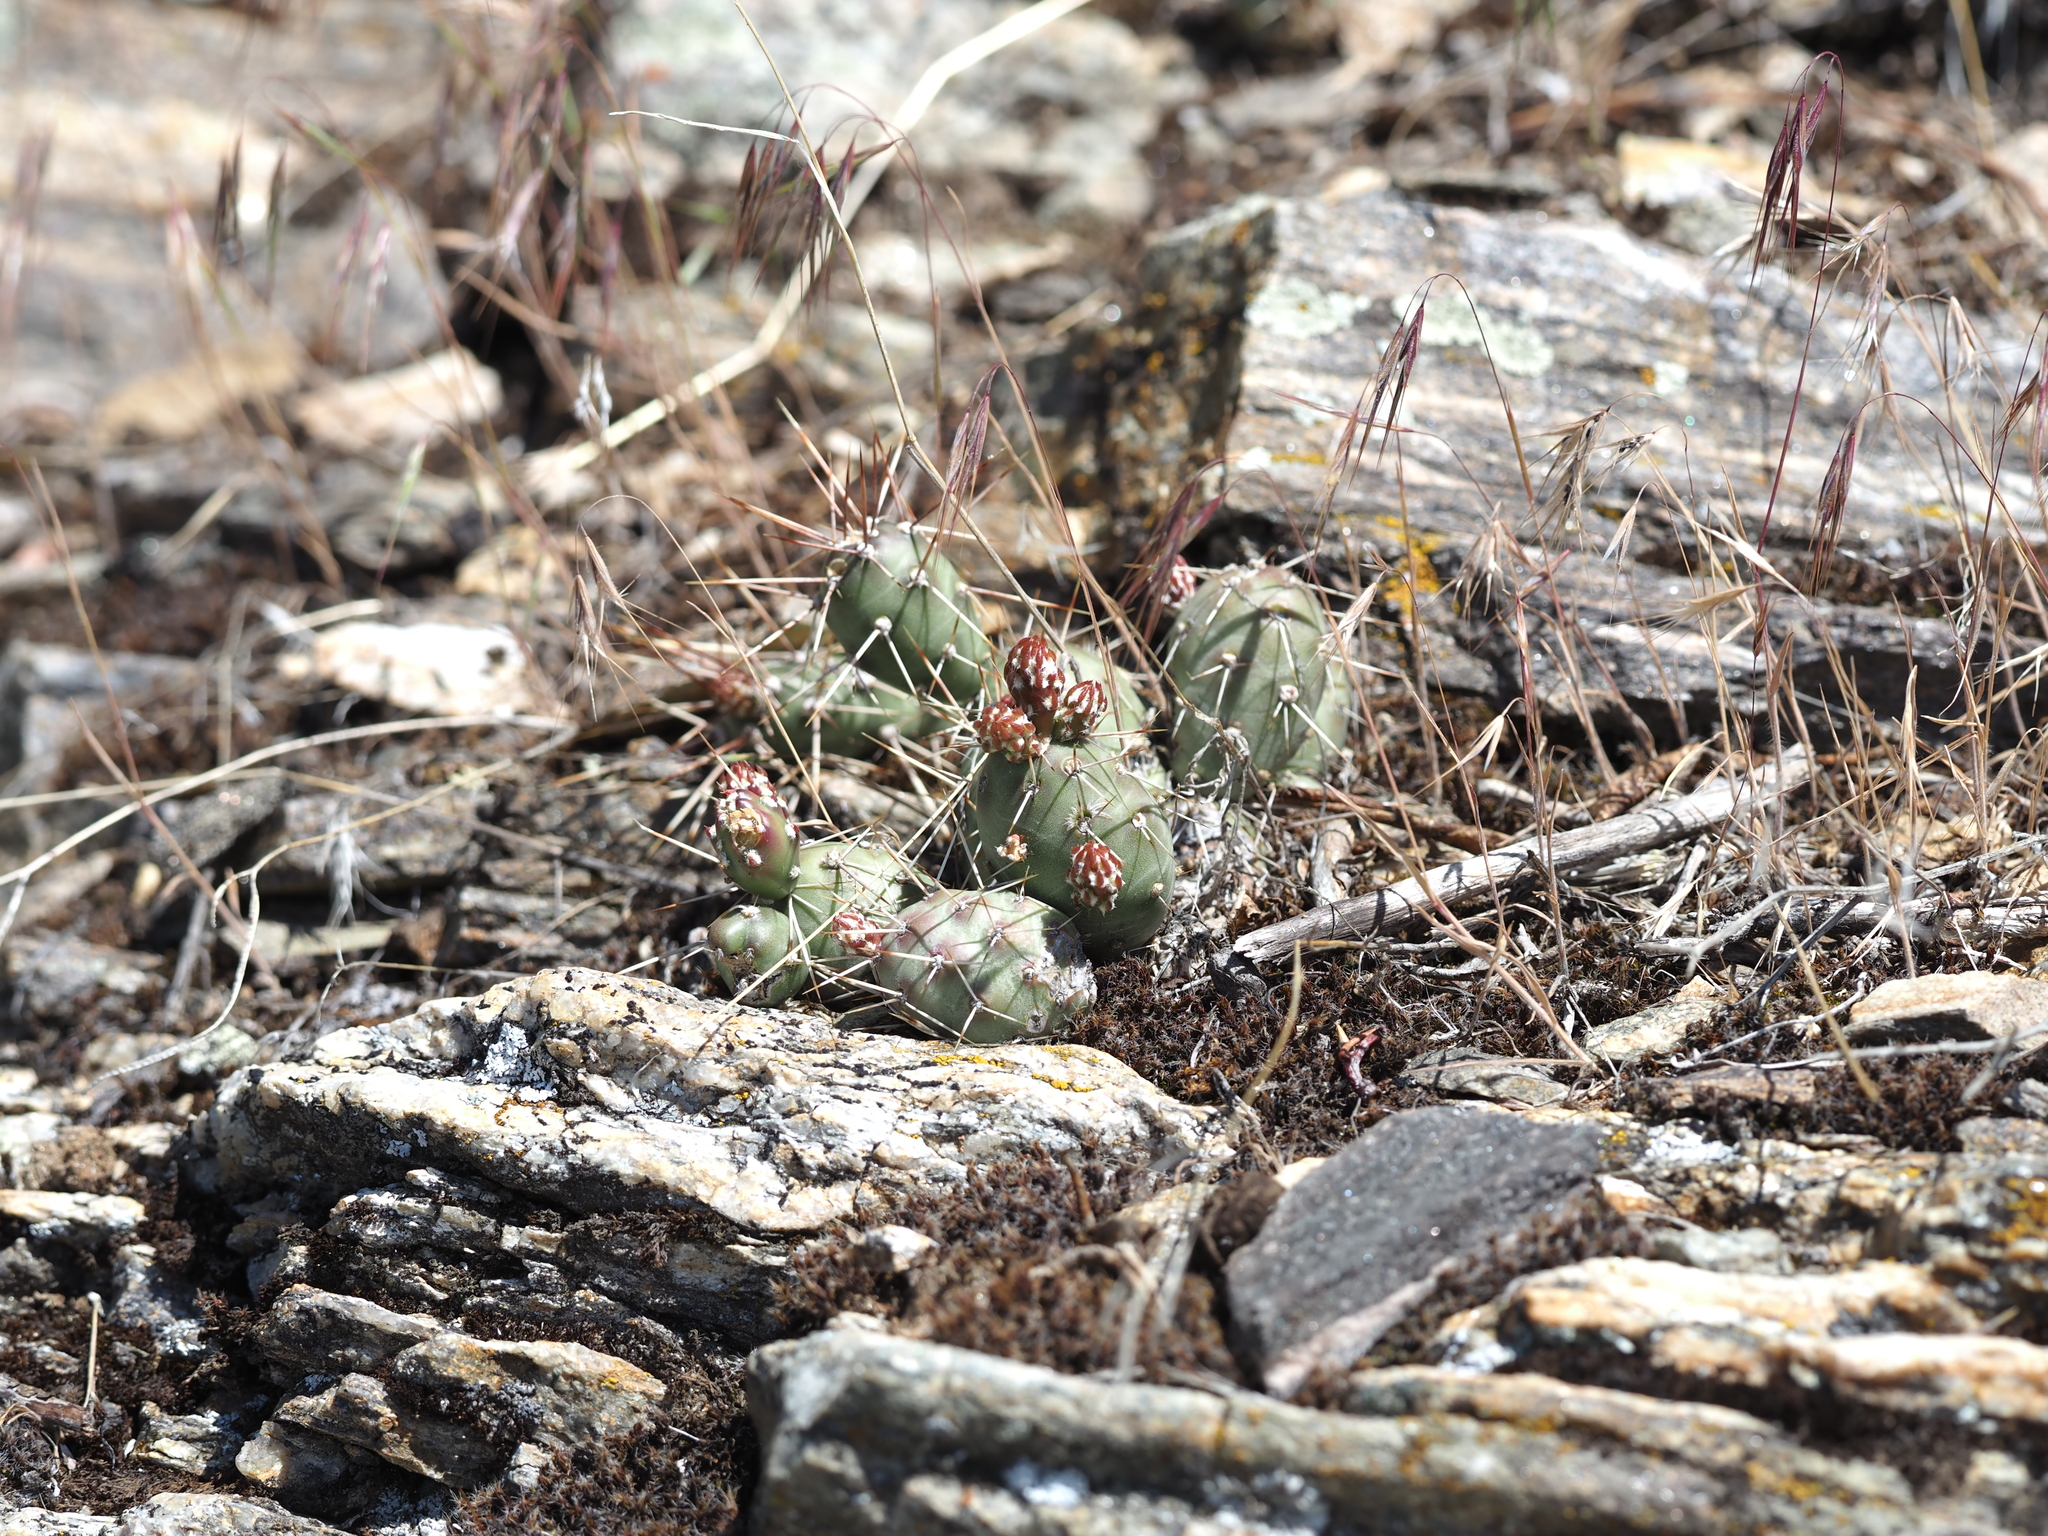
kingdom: Plantae
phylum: Tracheophyta
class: Magnoliopsida
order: Caryophyllales
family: Cactaceae
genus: Opuntia
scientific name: Opuntia fragilis
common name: Brittle cactus
